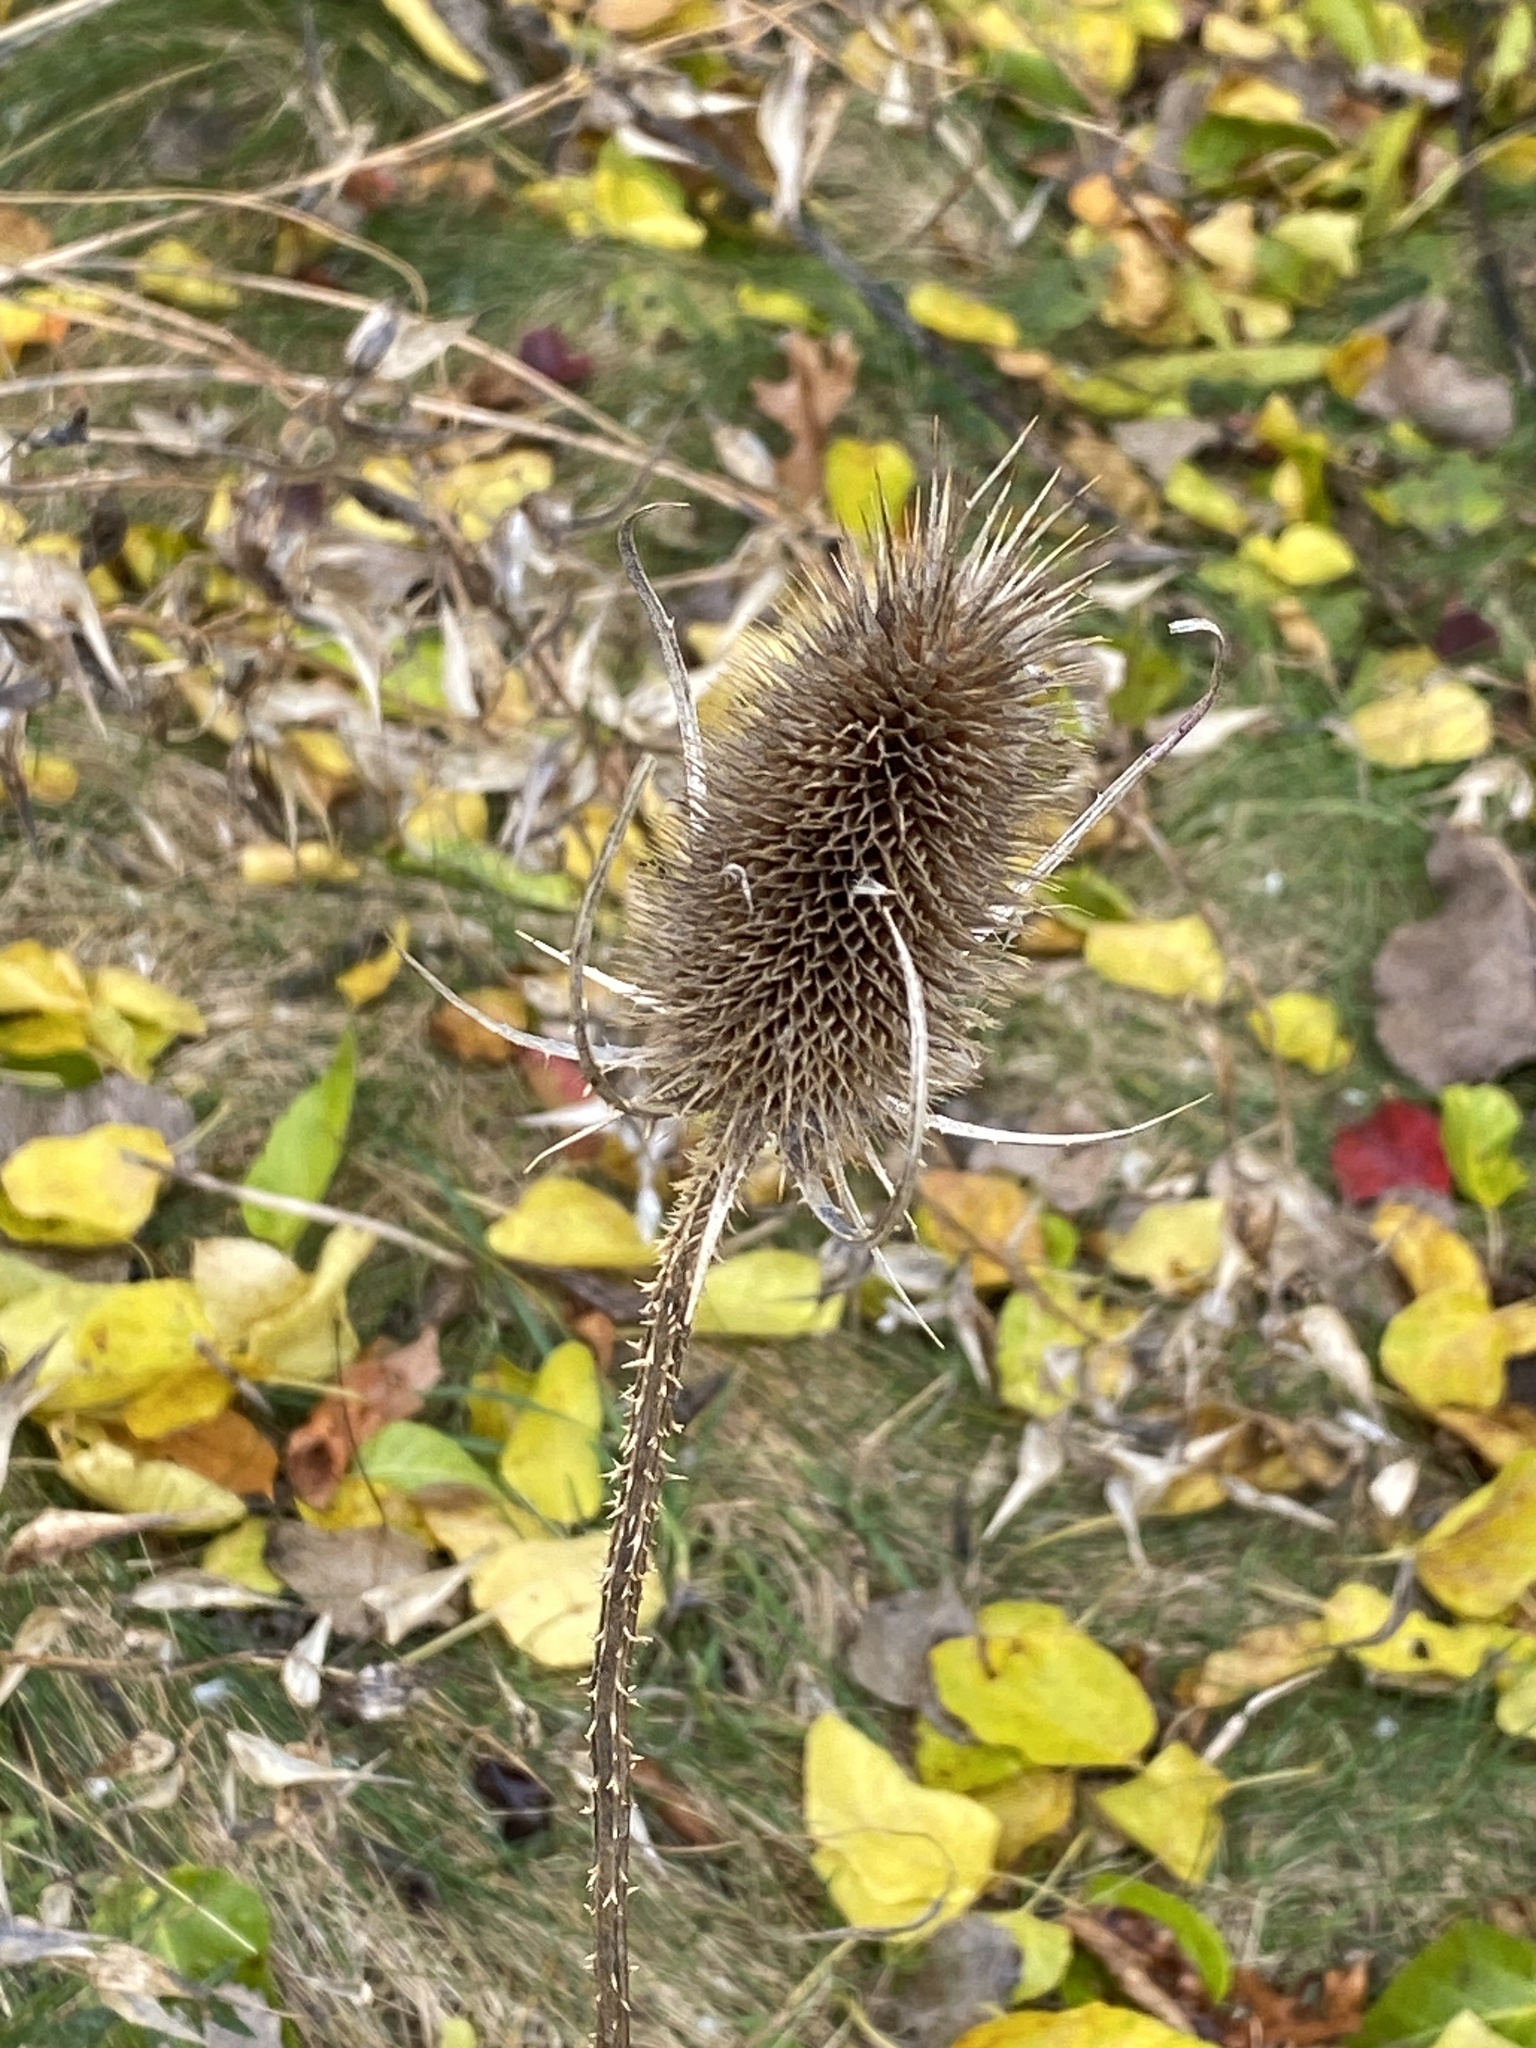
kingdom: Plantae
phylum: Tracheophyta
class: Magnoliopsida
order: Dipsacales
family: Caprifoliaceae
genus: Dipsacus
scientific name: Dipsacus fullonum
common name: Teasel
